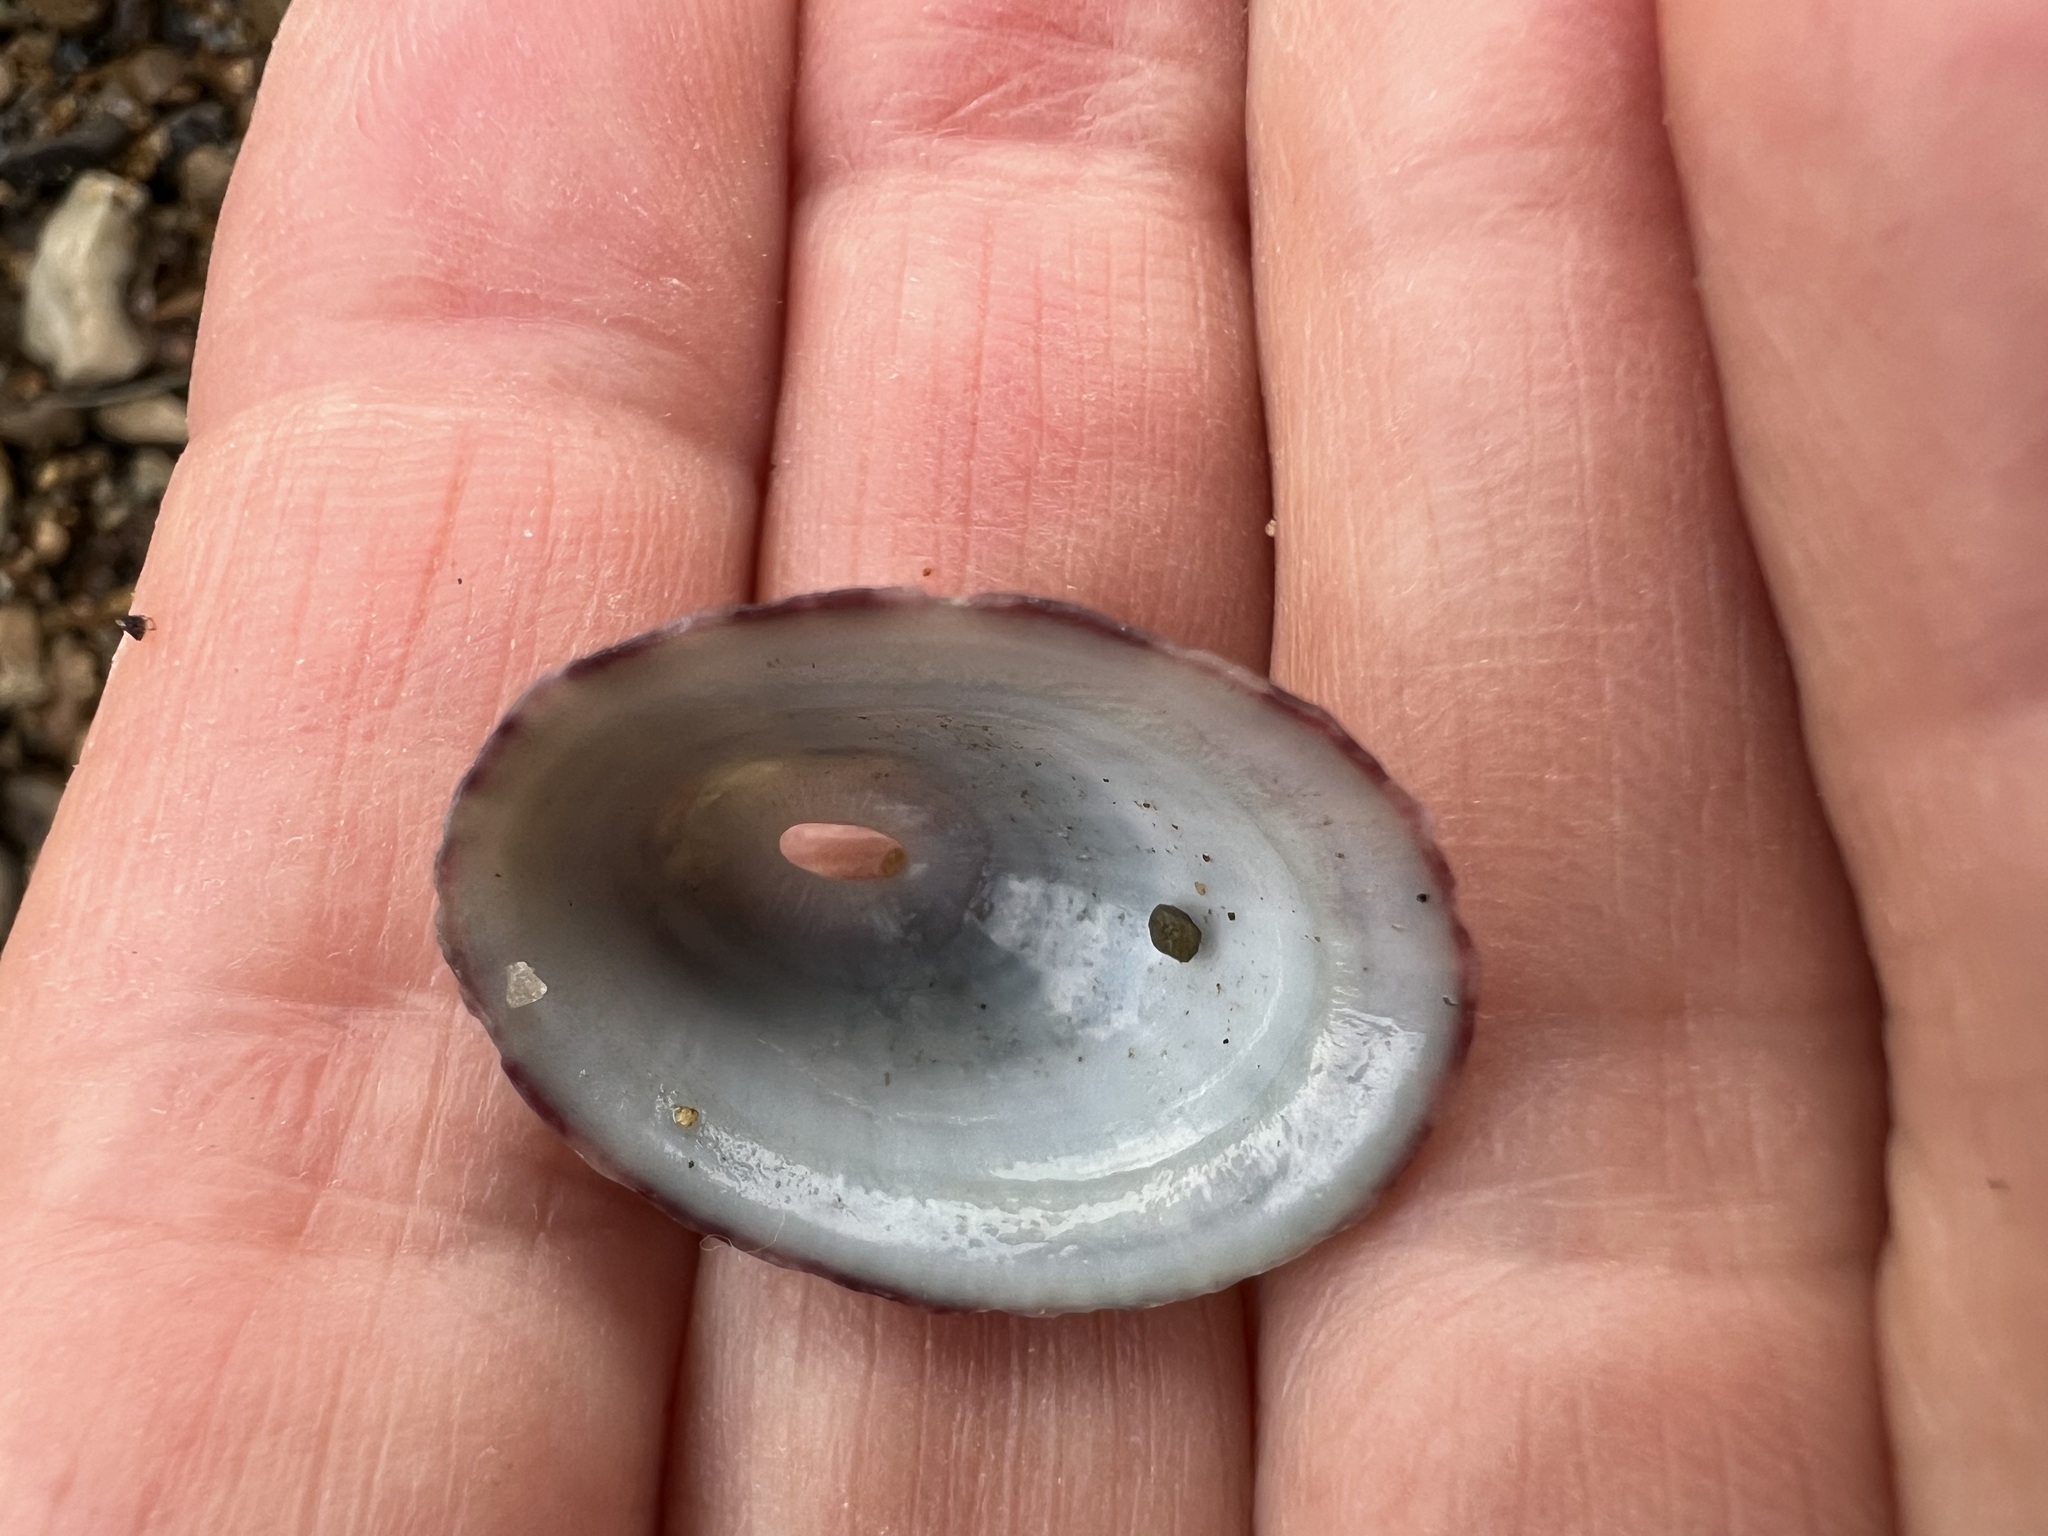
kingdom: Animalia
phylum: Mollusca
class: Gastropoda
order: Lepetellida
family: Fissurellidae
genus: Fissurella
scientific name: Fissurella volcano
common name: Volcano keyhole limpet
